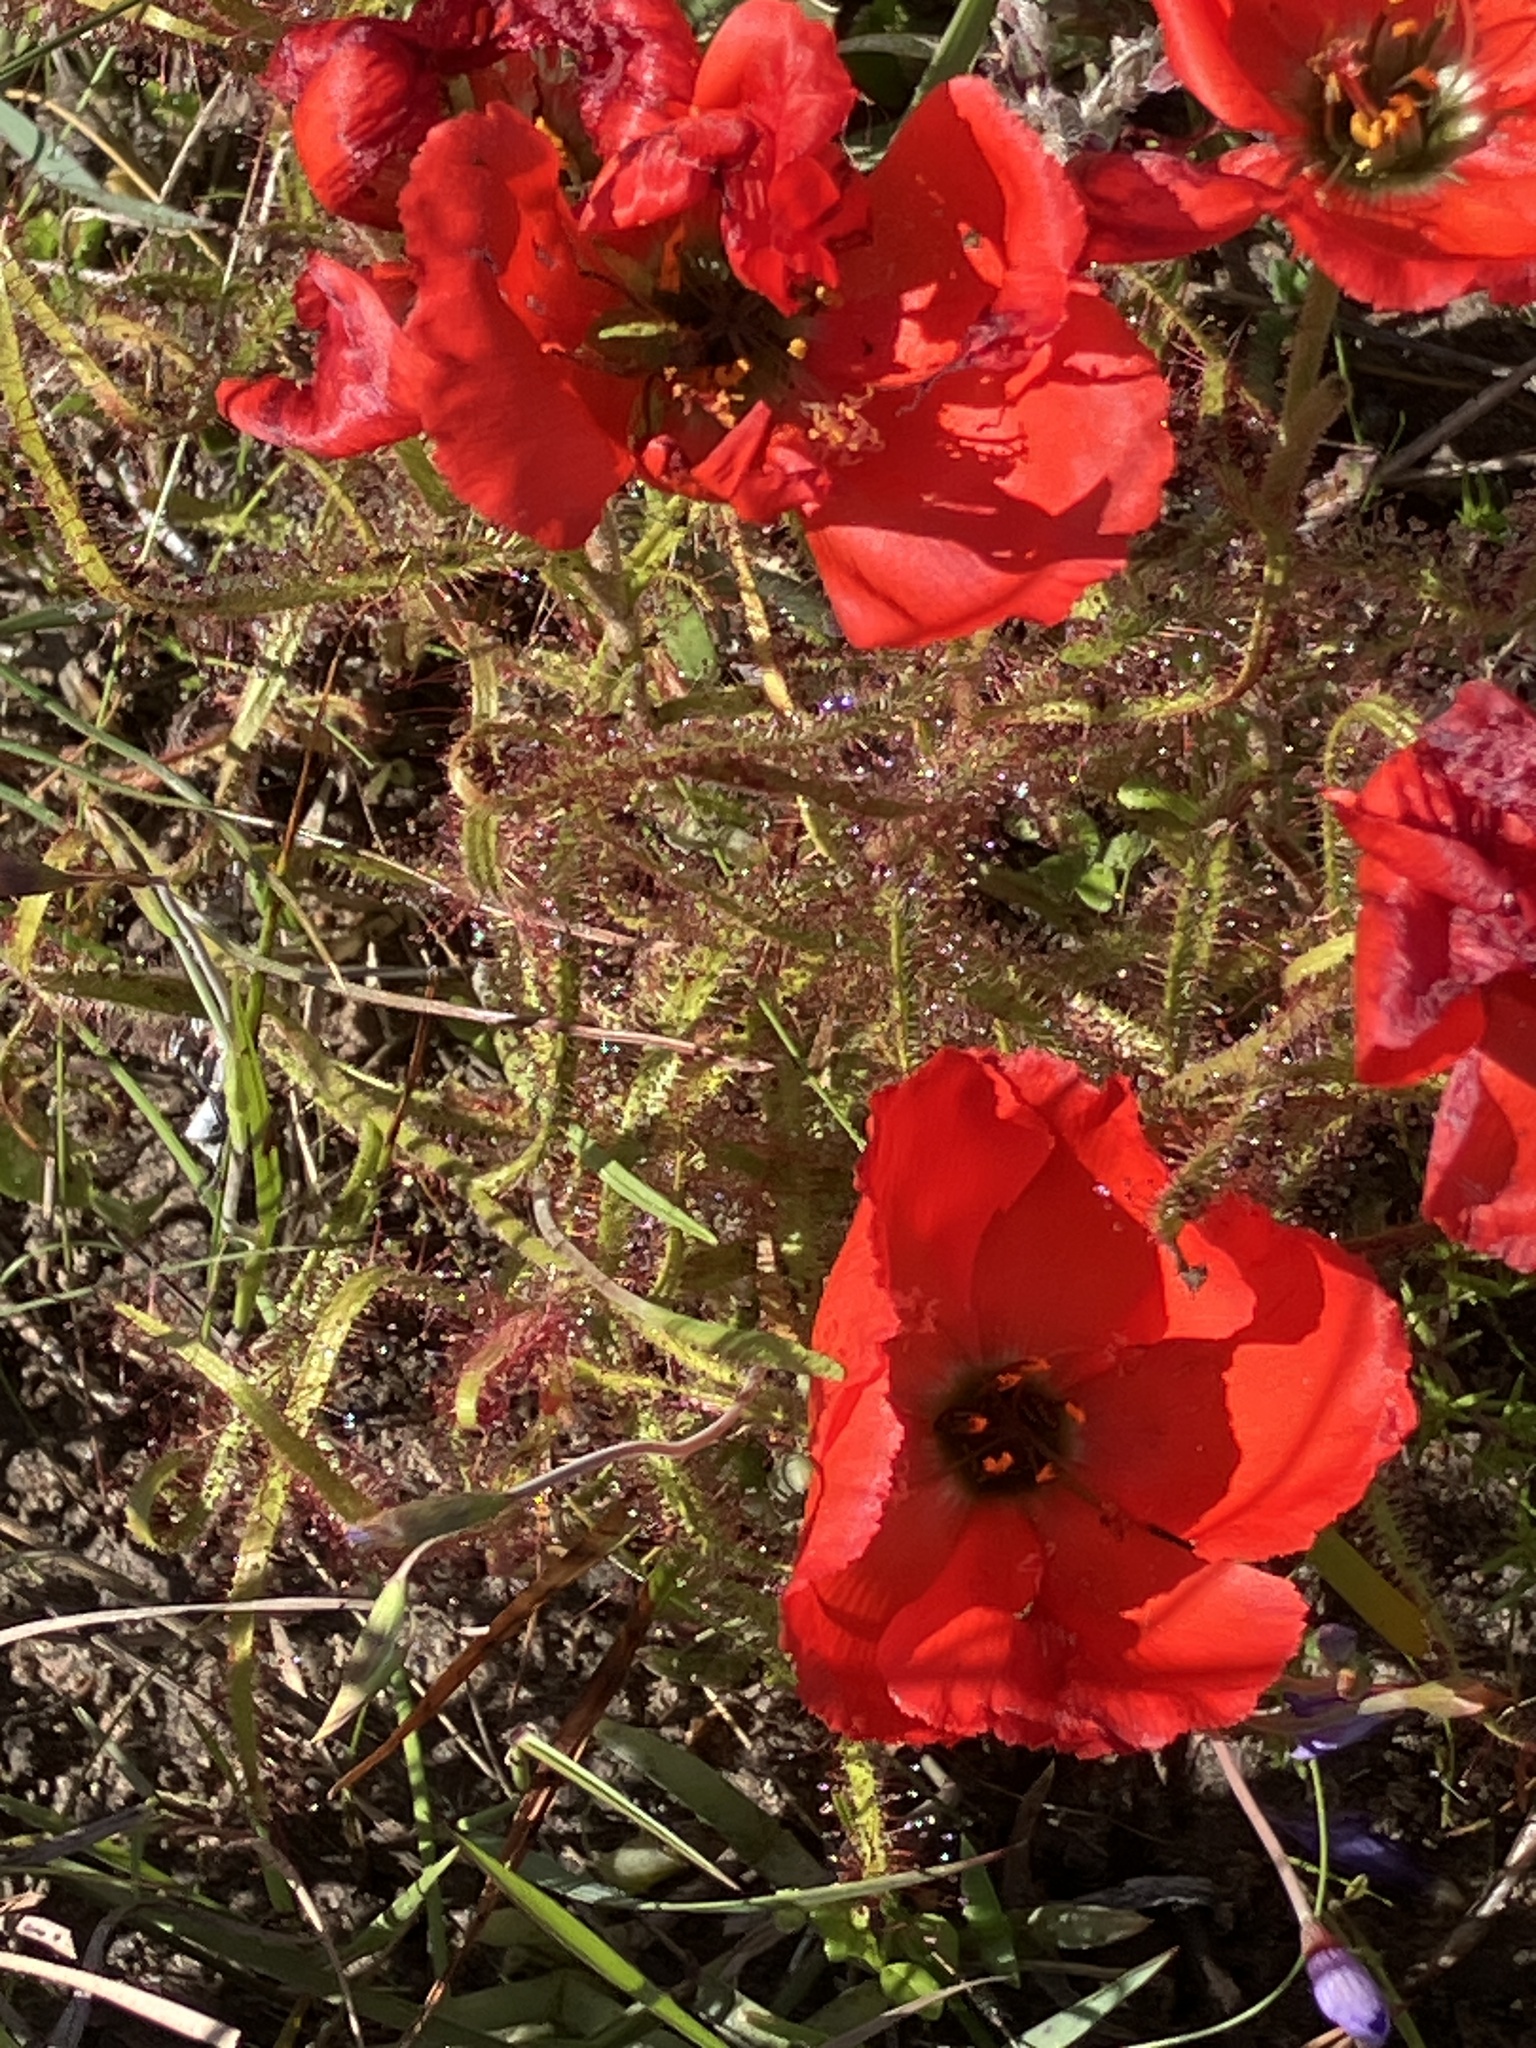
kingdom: Plantae
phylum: Tracheophyta
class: Magnoliopsida
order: Caryophyllales
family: Droseraceae
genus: Drosera
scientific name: Drosera cistiflora
